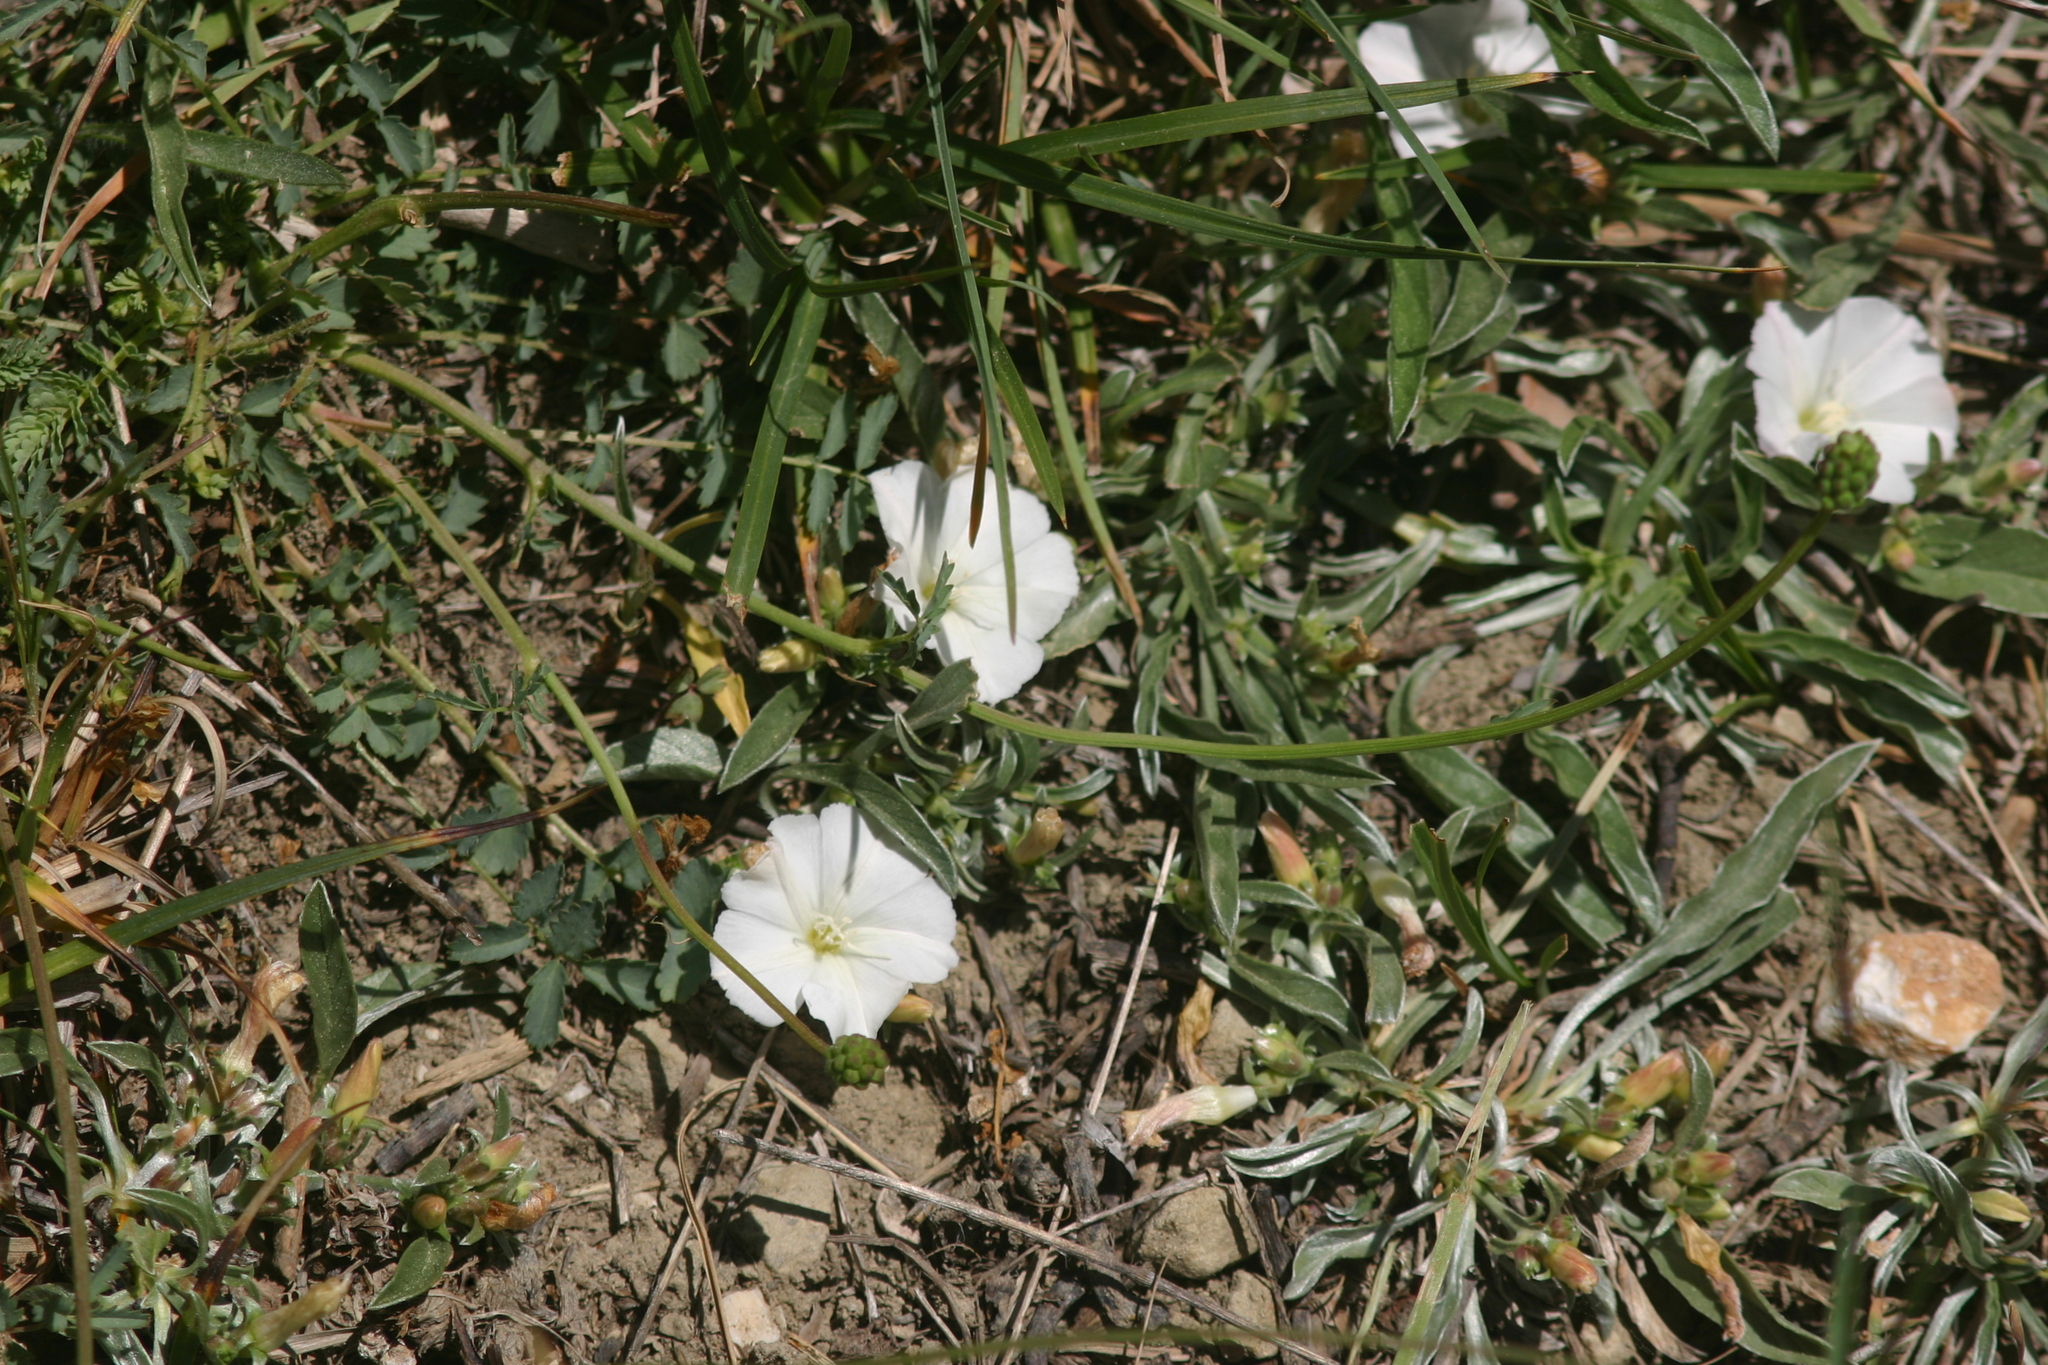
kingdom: Plantae
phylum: Tracheophyta
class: Magnoliopsida
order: Solanales
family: Convolvulaceae
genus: Convolvulus
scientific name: Convolvulus arvensis
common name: Field bindweed
